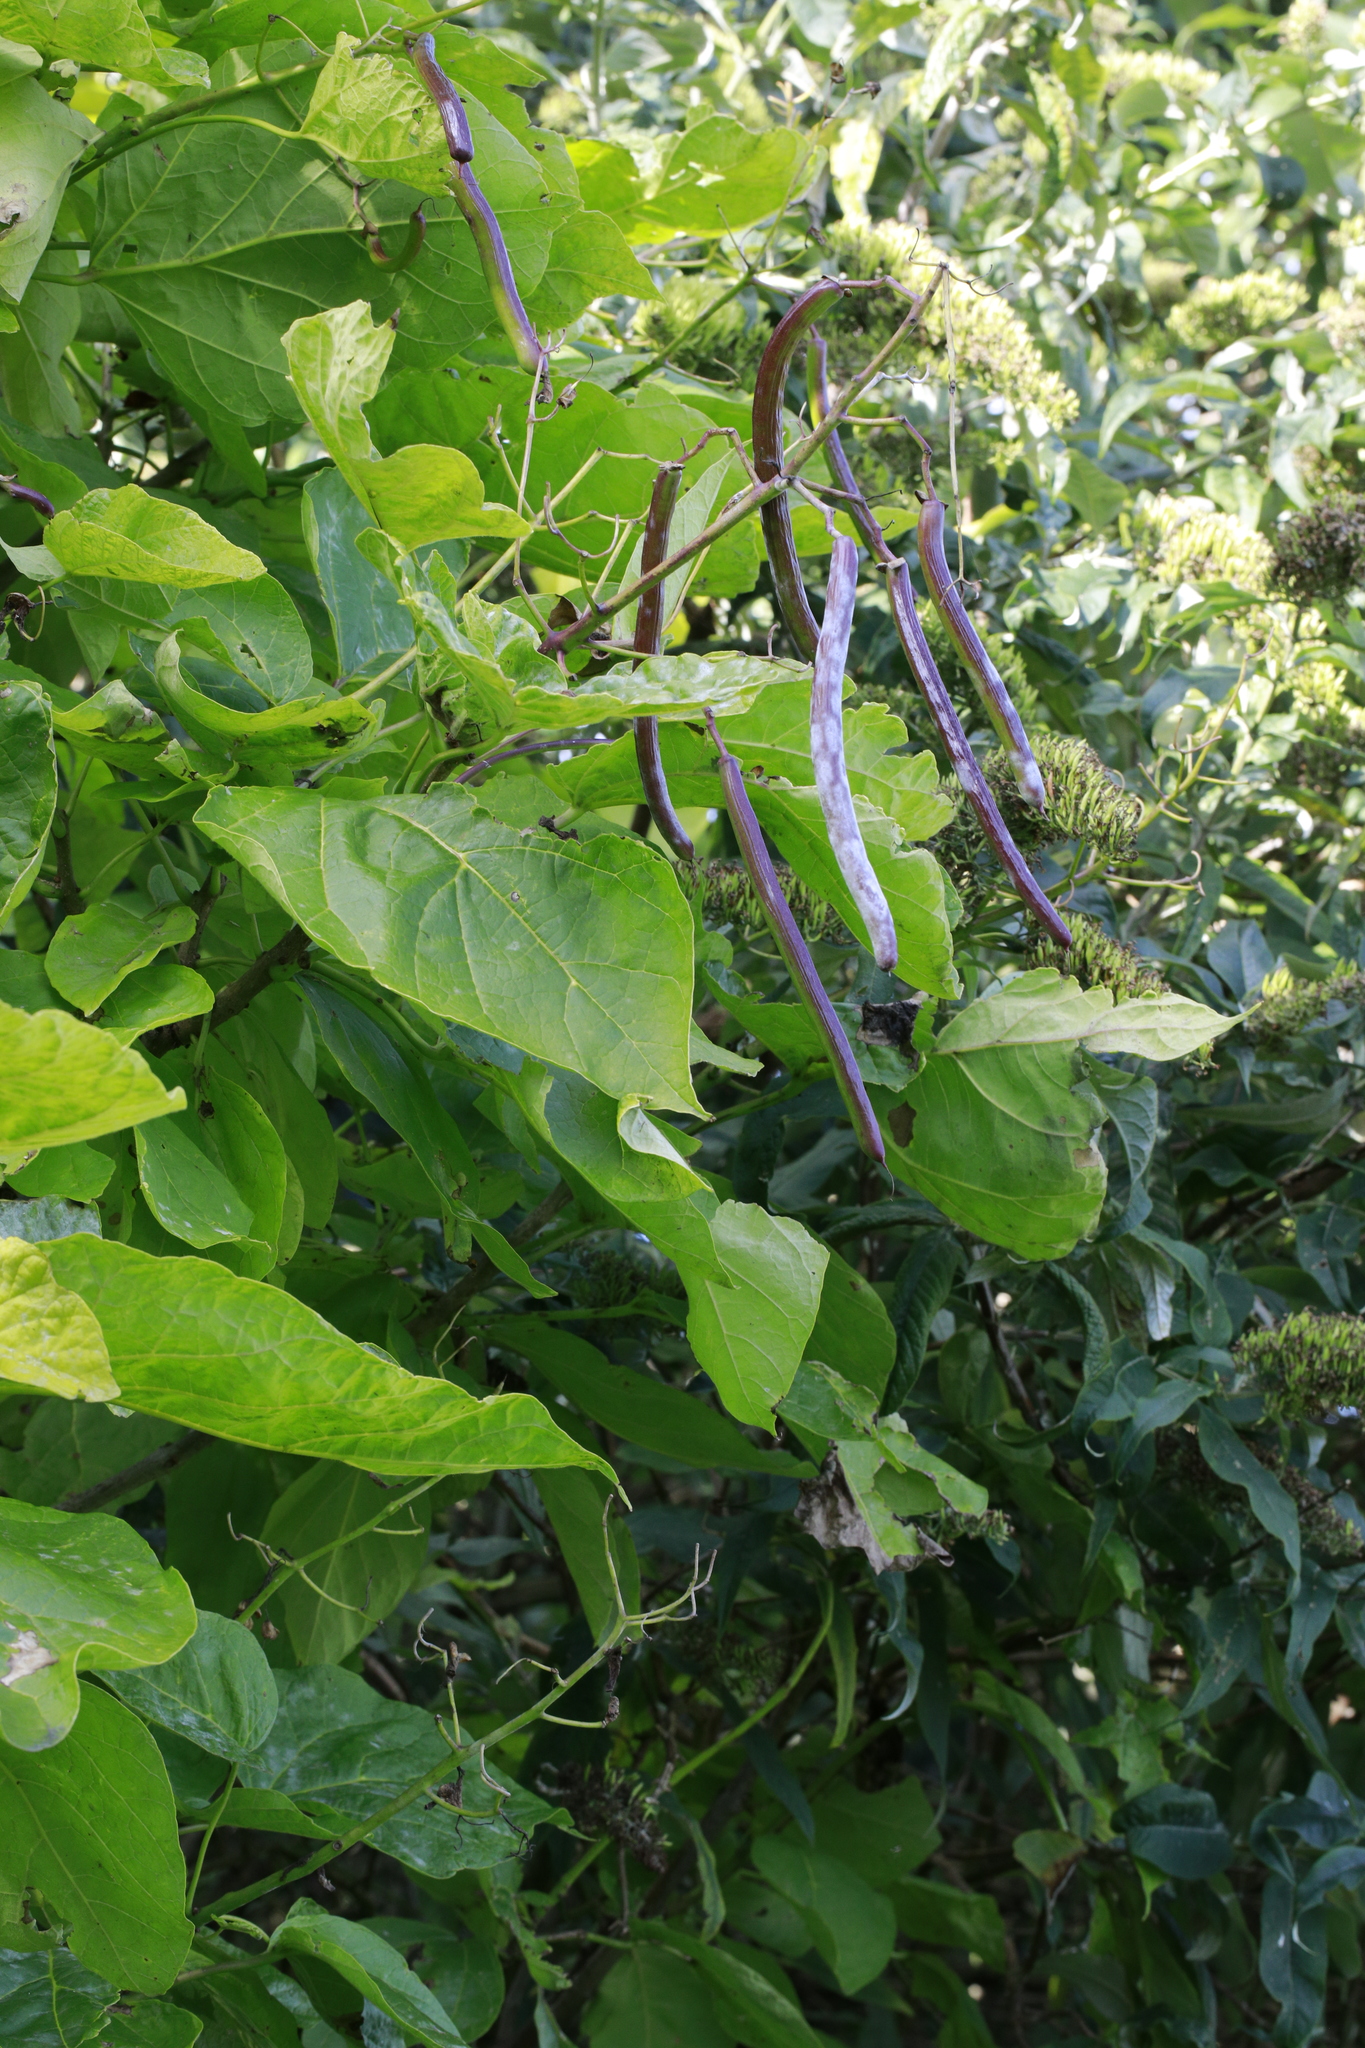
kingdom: Plantae
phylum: Tracheophyta
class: Magnoliopsida
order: Lamiales
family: Bignoniaceae
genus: Catalpa
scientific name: Catalpa speciosa
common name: Northern catalpa
